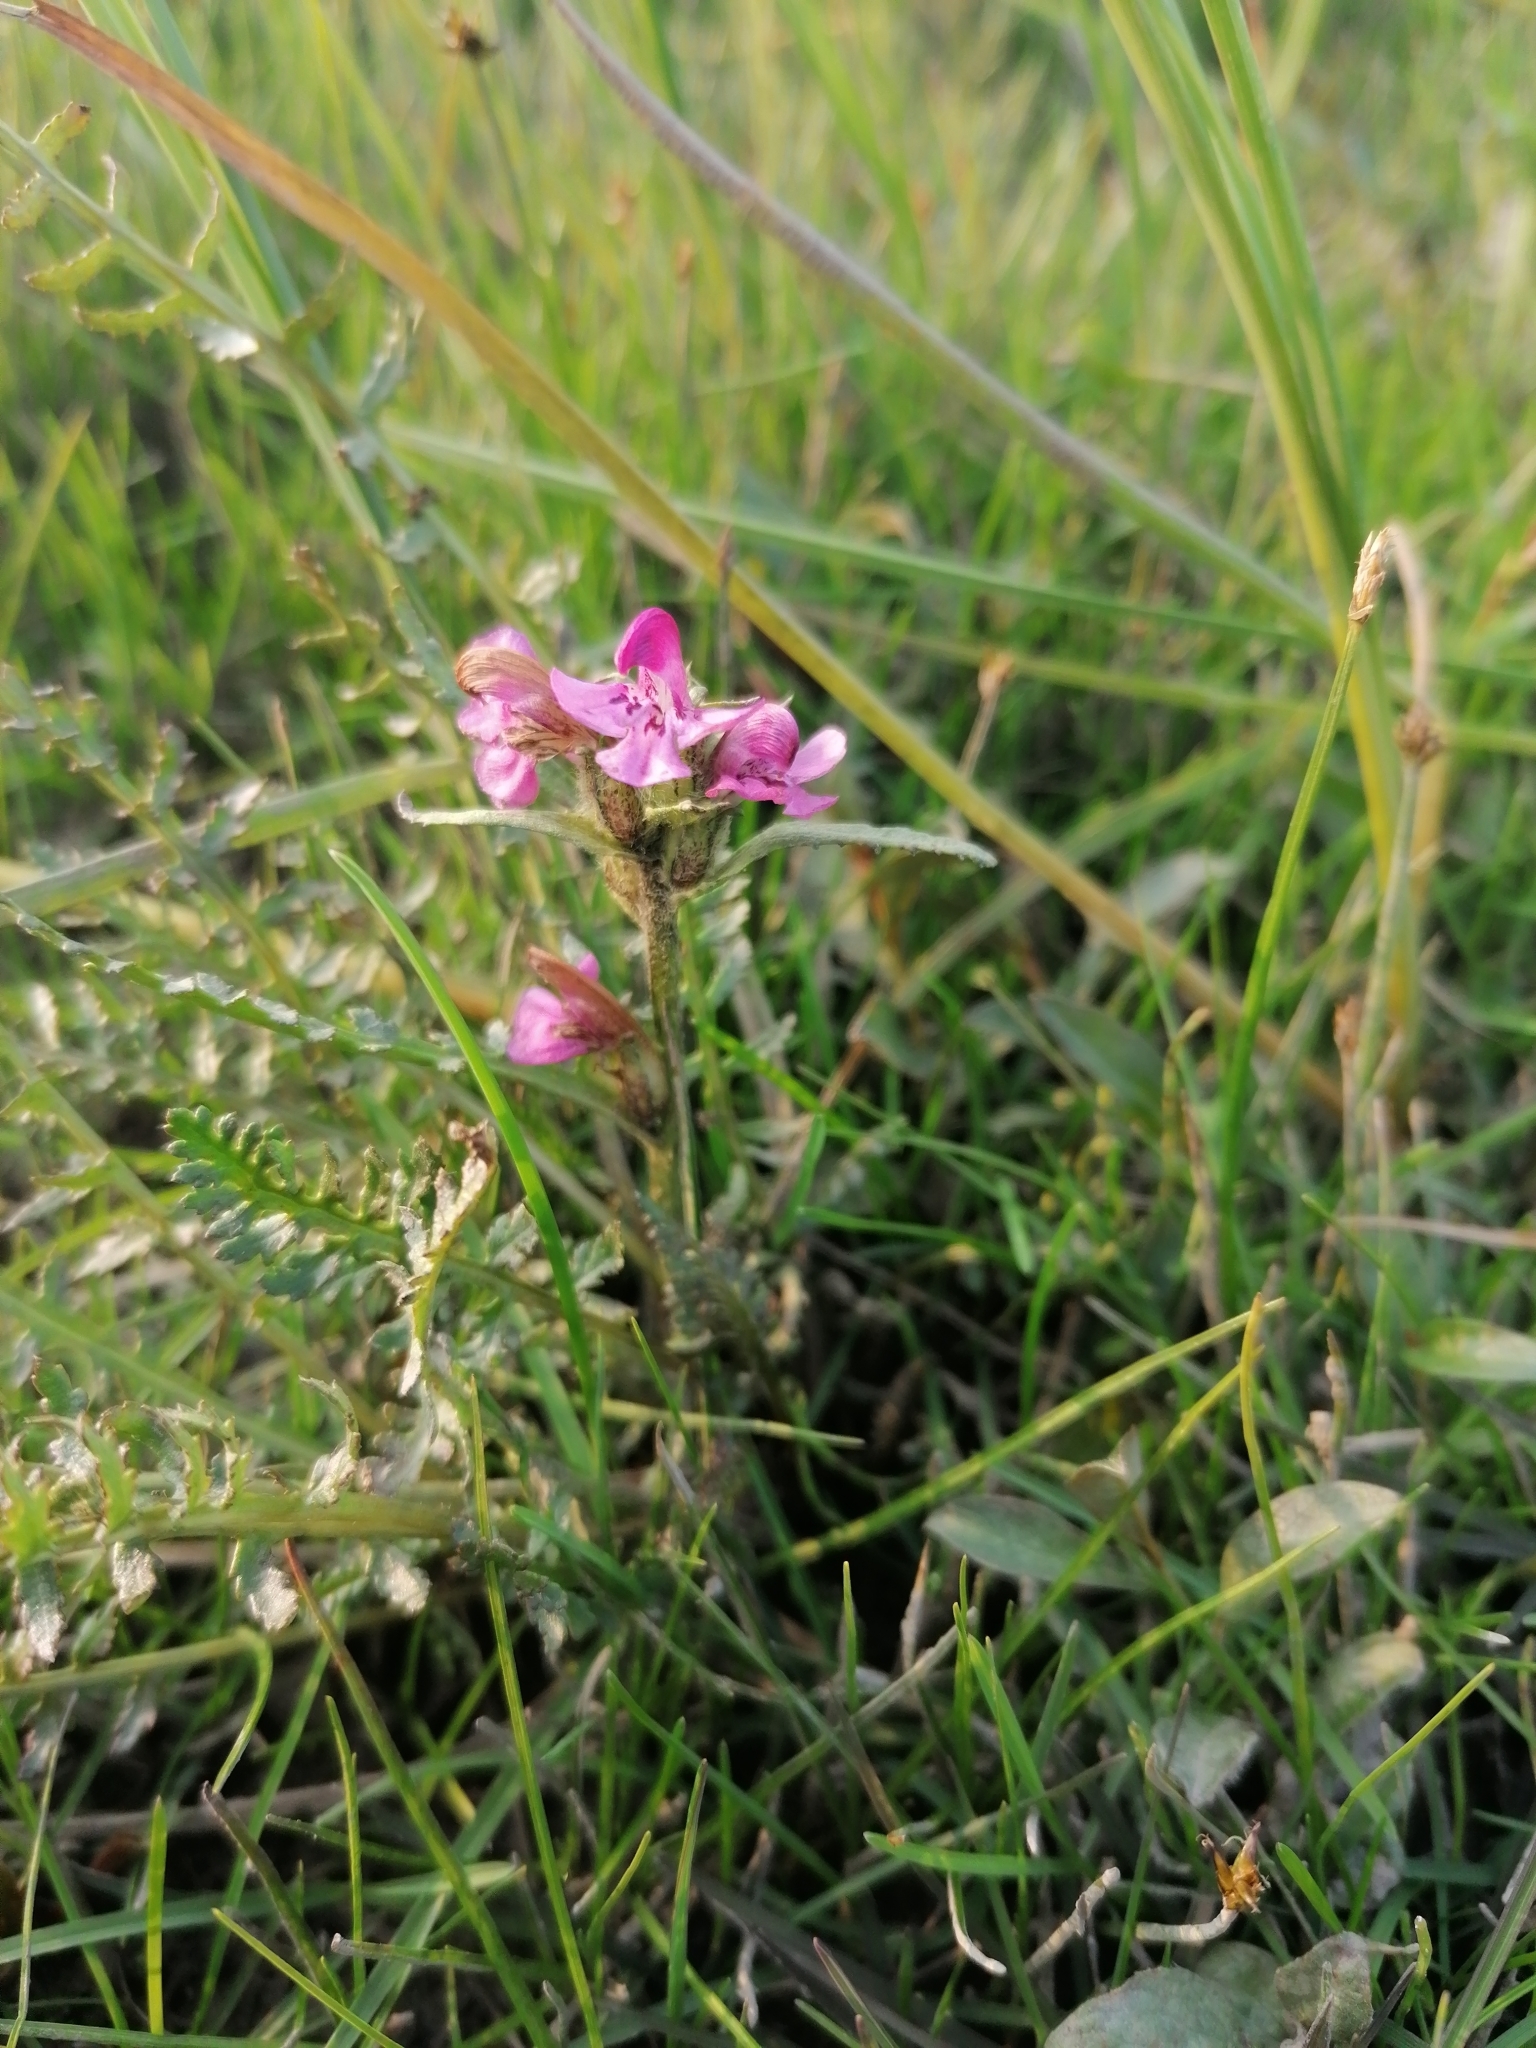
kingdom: Plantae
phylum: Tracheophyta
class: Magnoliopsida
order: Lamiales
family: Orobanchaceae
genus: Pedicularis
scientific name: Pedicularis interior
